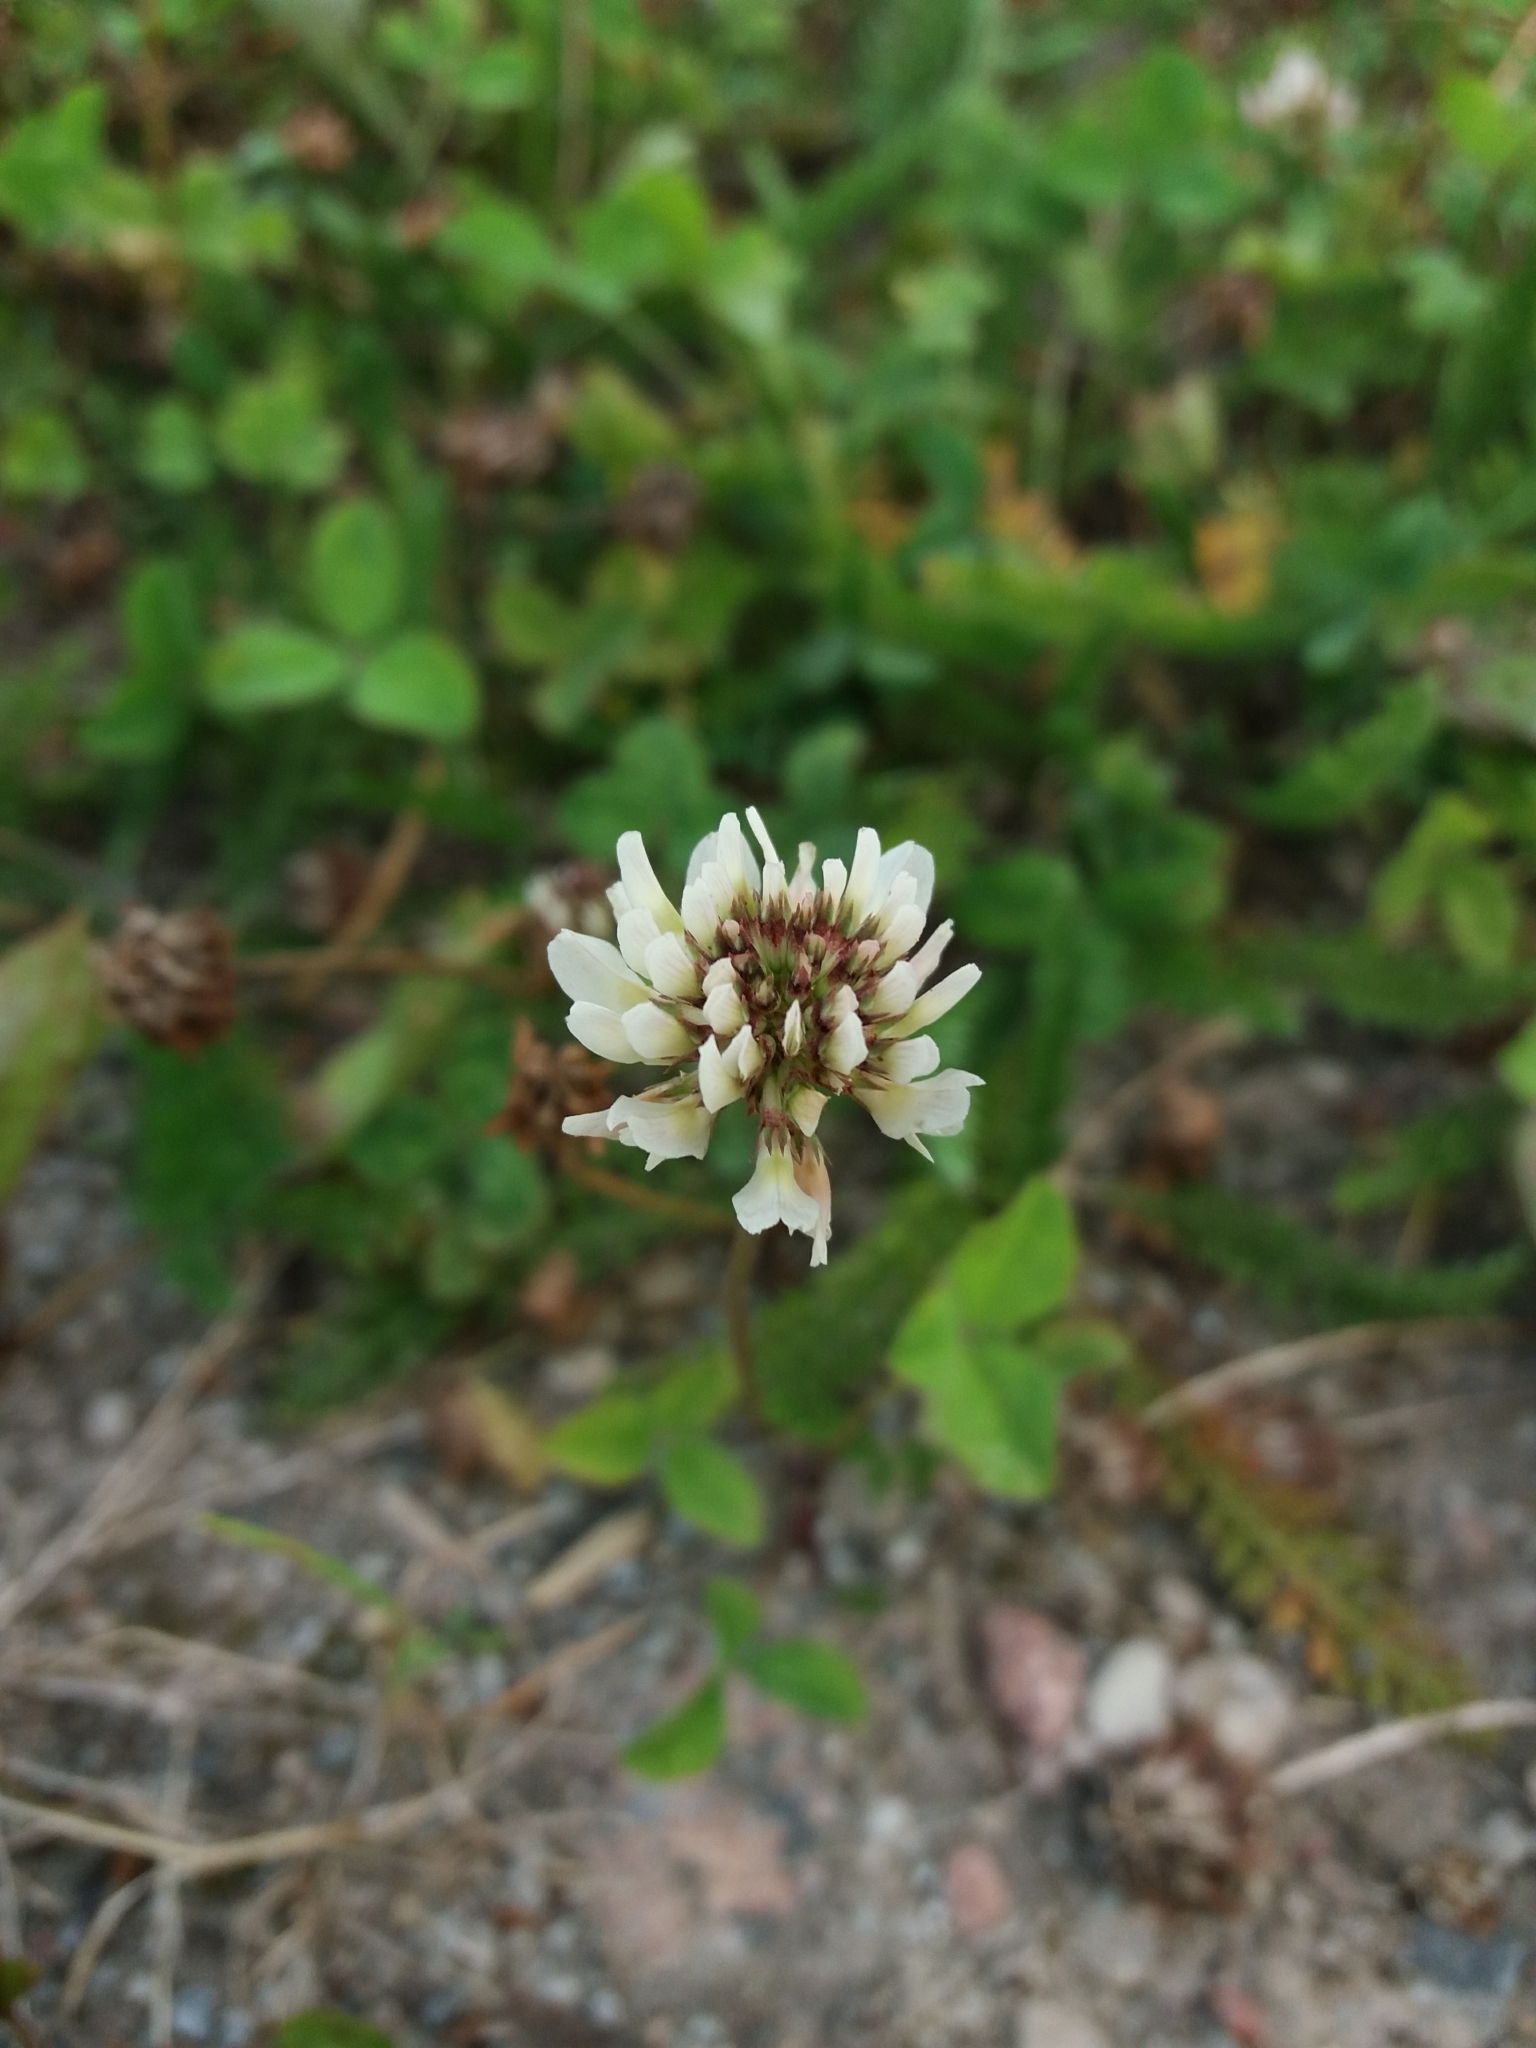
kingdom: Plantae
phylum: Tracheophyta
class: Magnoliopsida
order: Fabales
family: Fabaceae
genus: Trifolium
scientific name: Trifolium repens
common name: White clover
